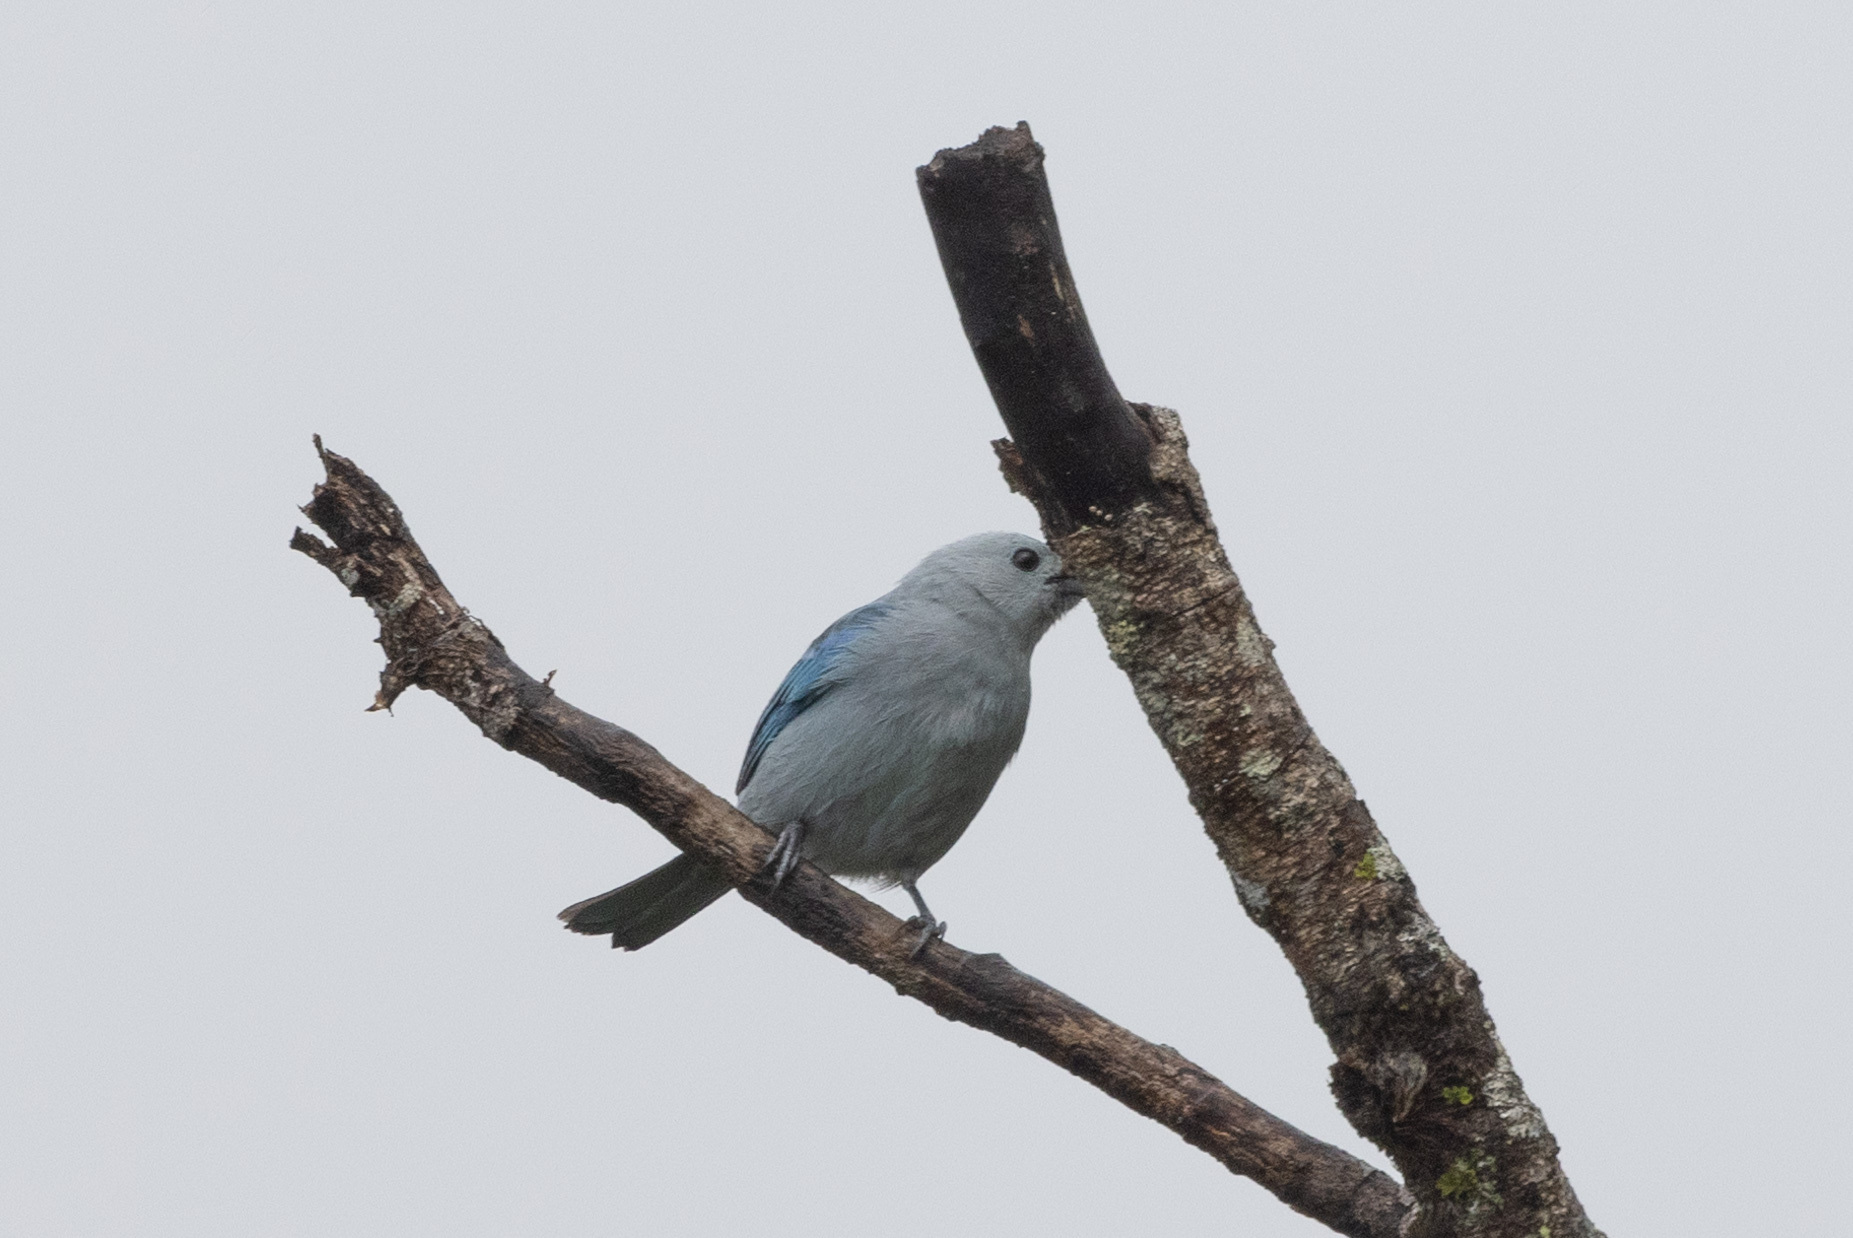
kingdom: Animalia
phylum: Chordata
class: Aves
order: Passeriformes
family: Thraupidae
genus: Thraupis
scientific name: Thraupis episcopus
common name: Blue-grey tanager
